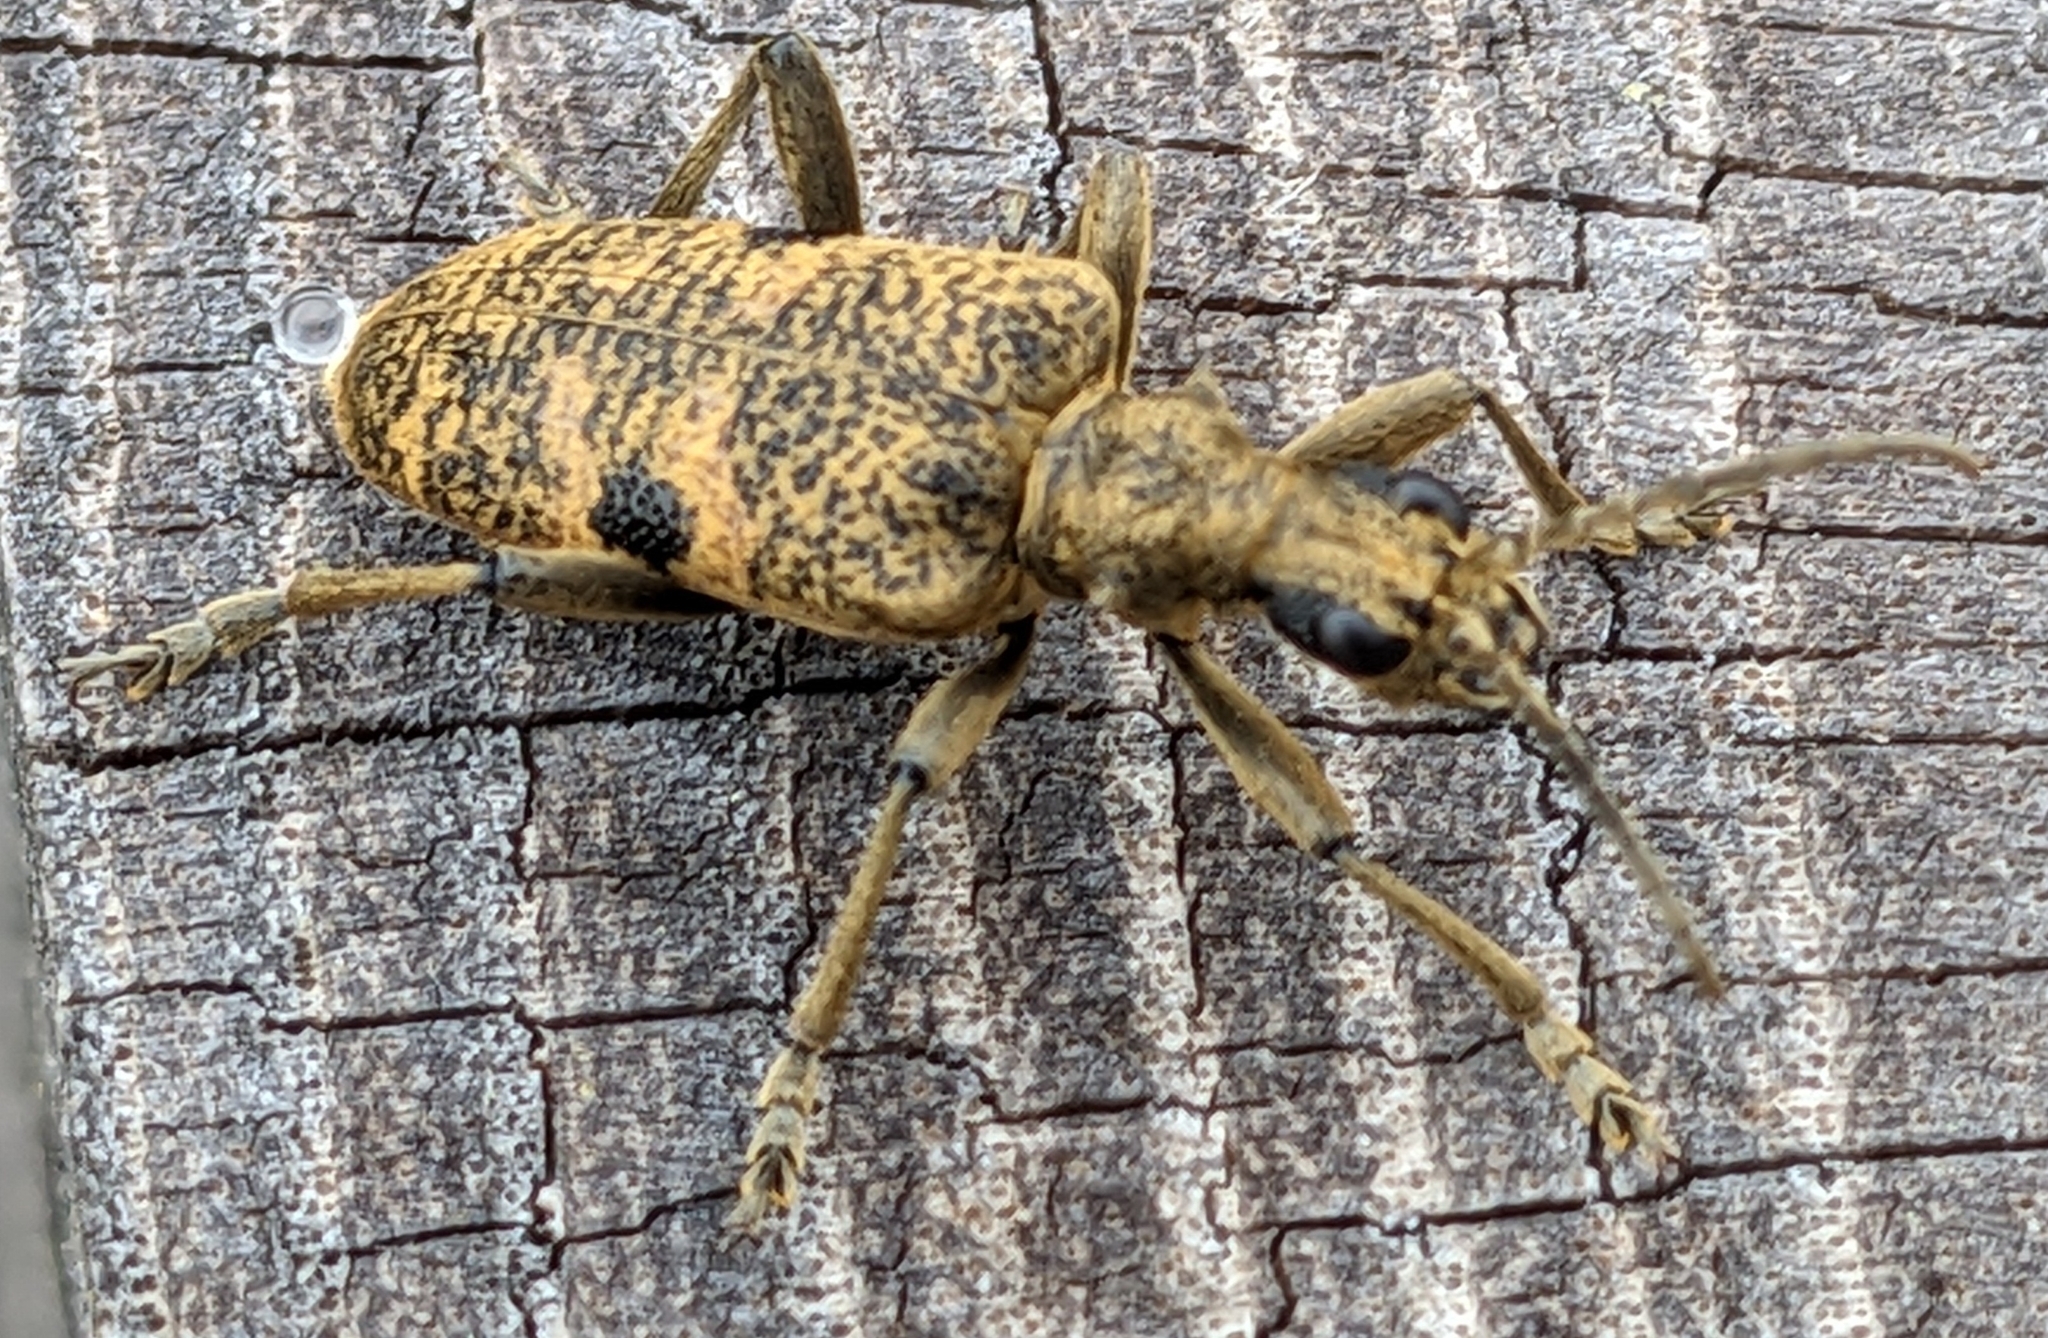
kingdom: Animalia
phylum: Arthropoda
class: Insecta
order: Coleoptera
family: Cerambycidae
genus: Rhagium
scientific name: Rhagium mordax
